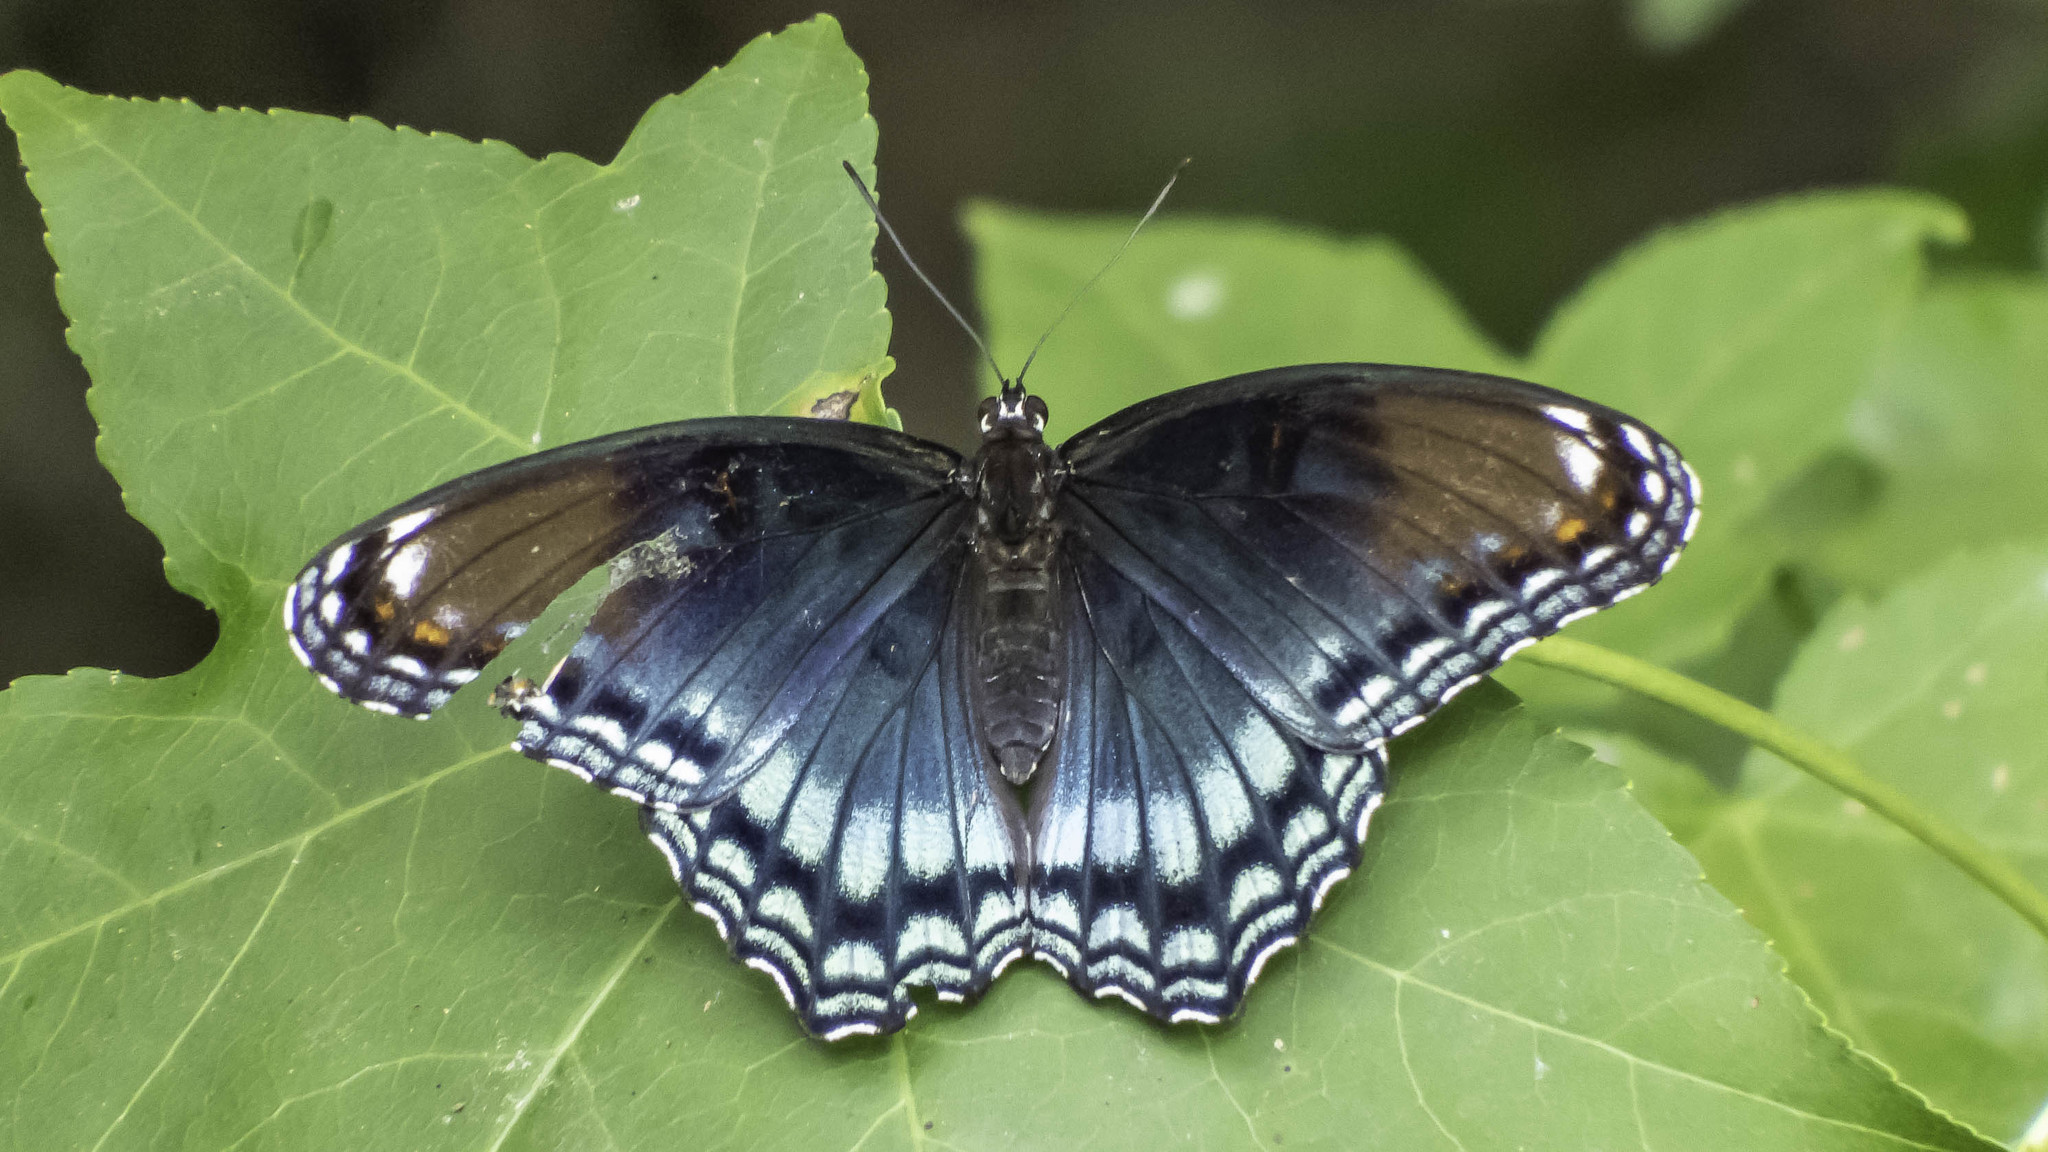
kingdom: Animalia
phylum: Arthropoda
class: Insecta
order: Lepidoptera
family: Nymphalidae
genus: Limenitis
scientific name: Limenitis astyanax
